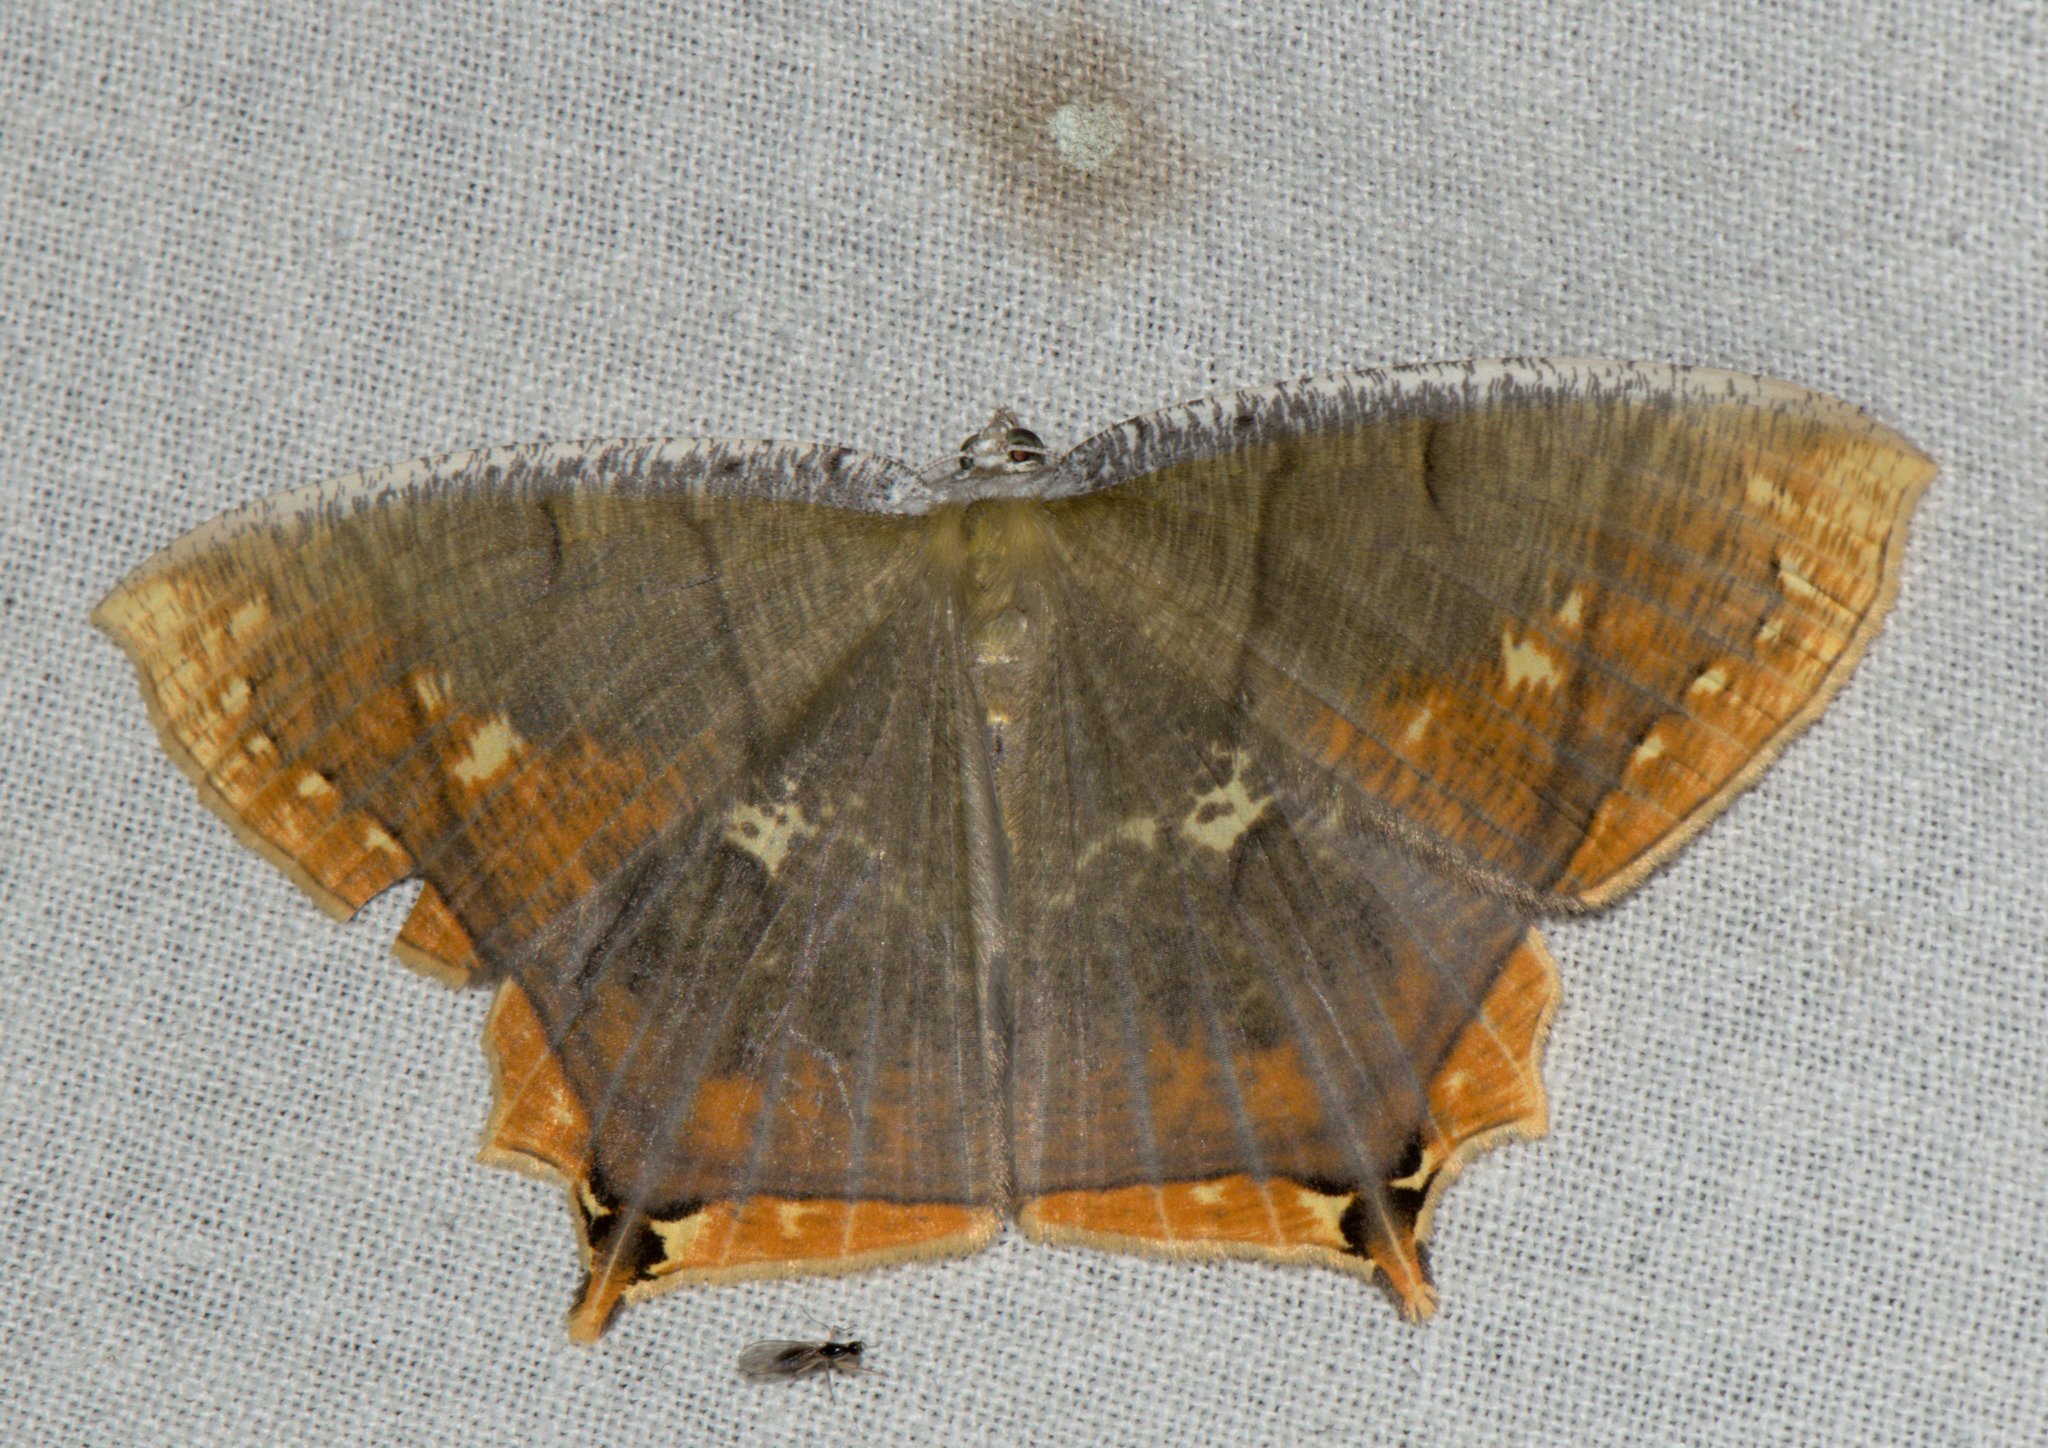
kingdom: Animalia
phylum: Arthropoda
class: Insecta
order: Lepidoptera
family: Geometridae
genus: Thinopteryx
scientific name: Thinopteryx nebulosa
